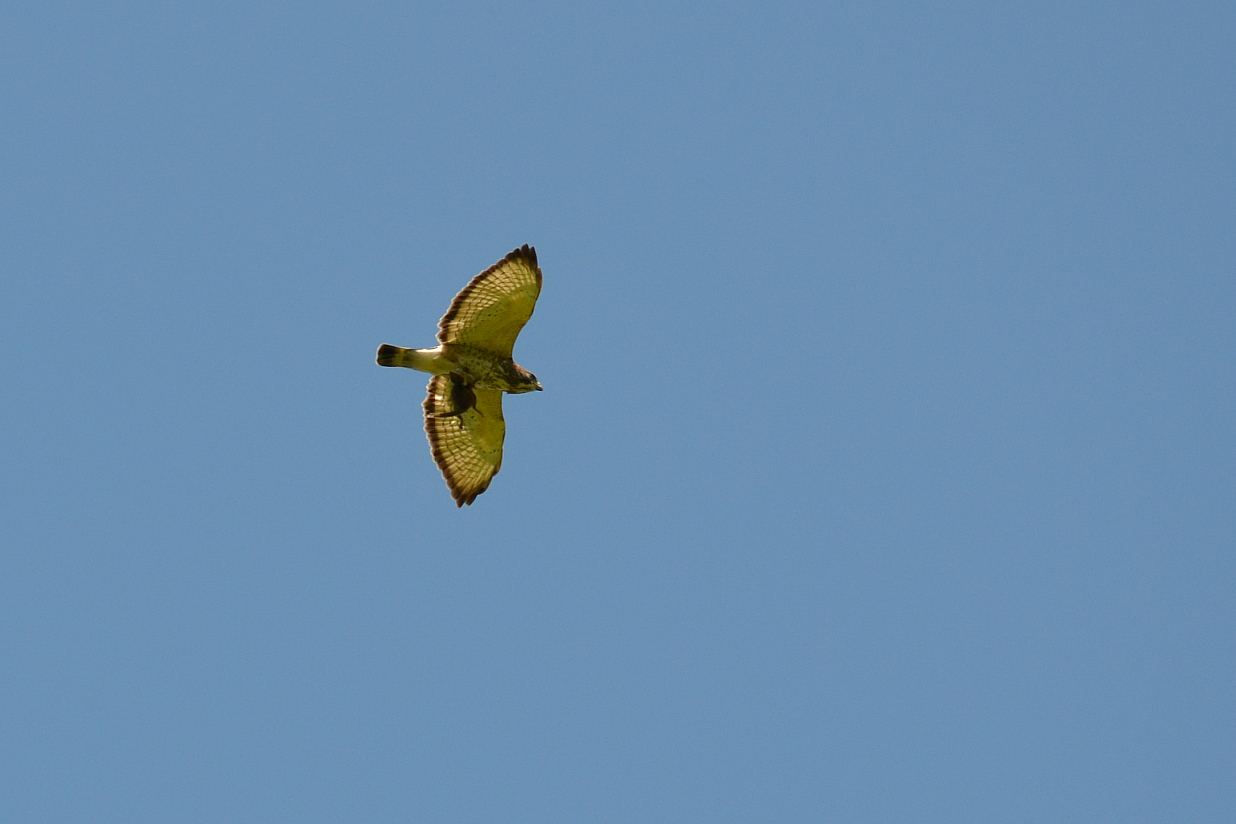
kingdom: Animalia
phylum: Chordata
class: Aves
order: Accipitriformes
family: Accipitridae
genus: Buteo
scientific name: Buteo platypterus
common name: Broad-winged hawk
